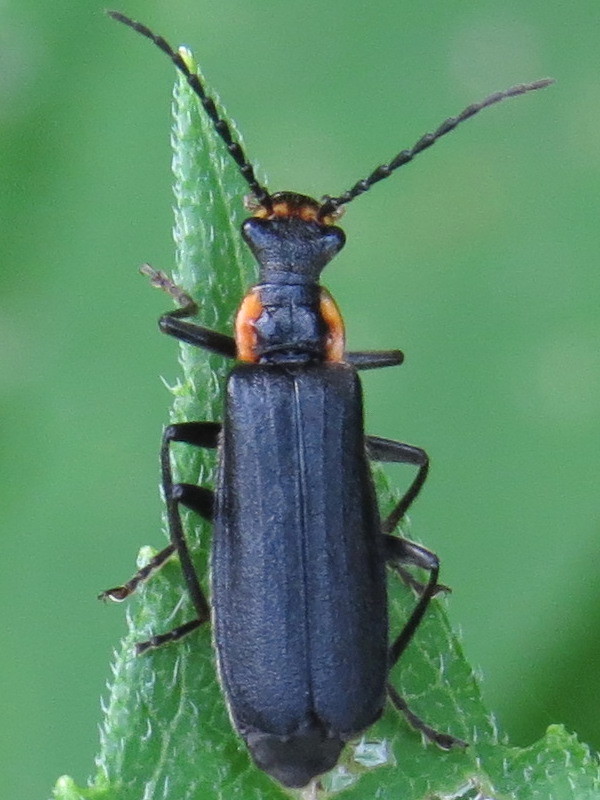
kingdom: Animalia
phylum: Arthropoda
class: Insecta
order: Coleoptera
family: Cantharidae
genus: Podabrus
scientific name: Podabrus rugosulus
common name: Wrinkled soldier beetle
